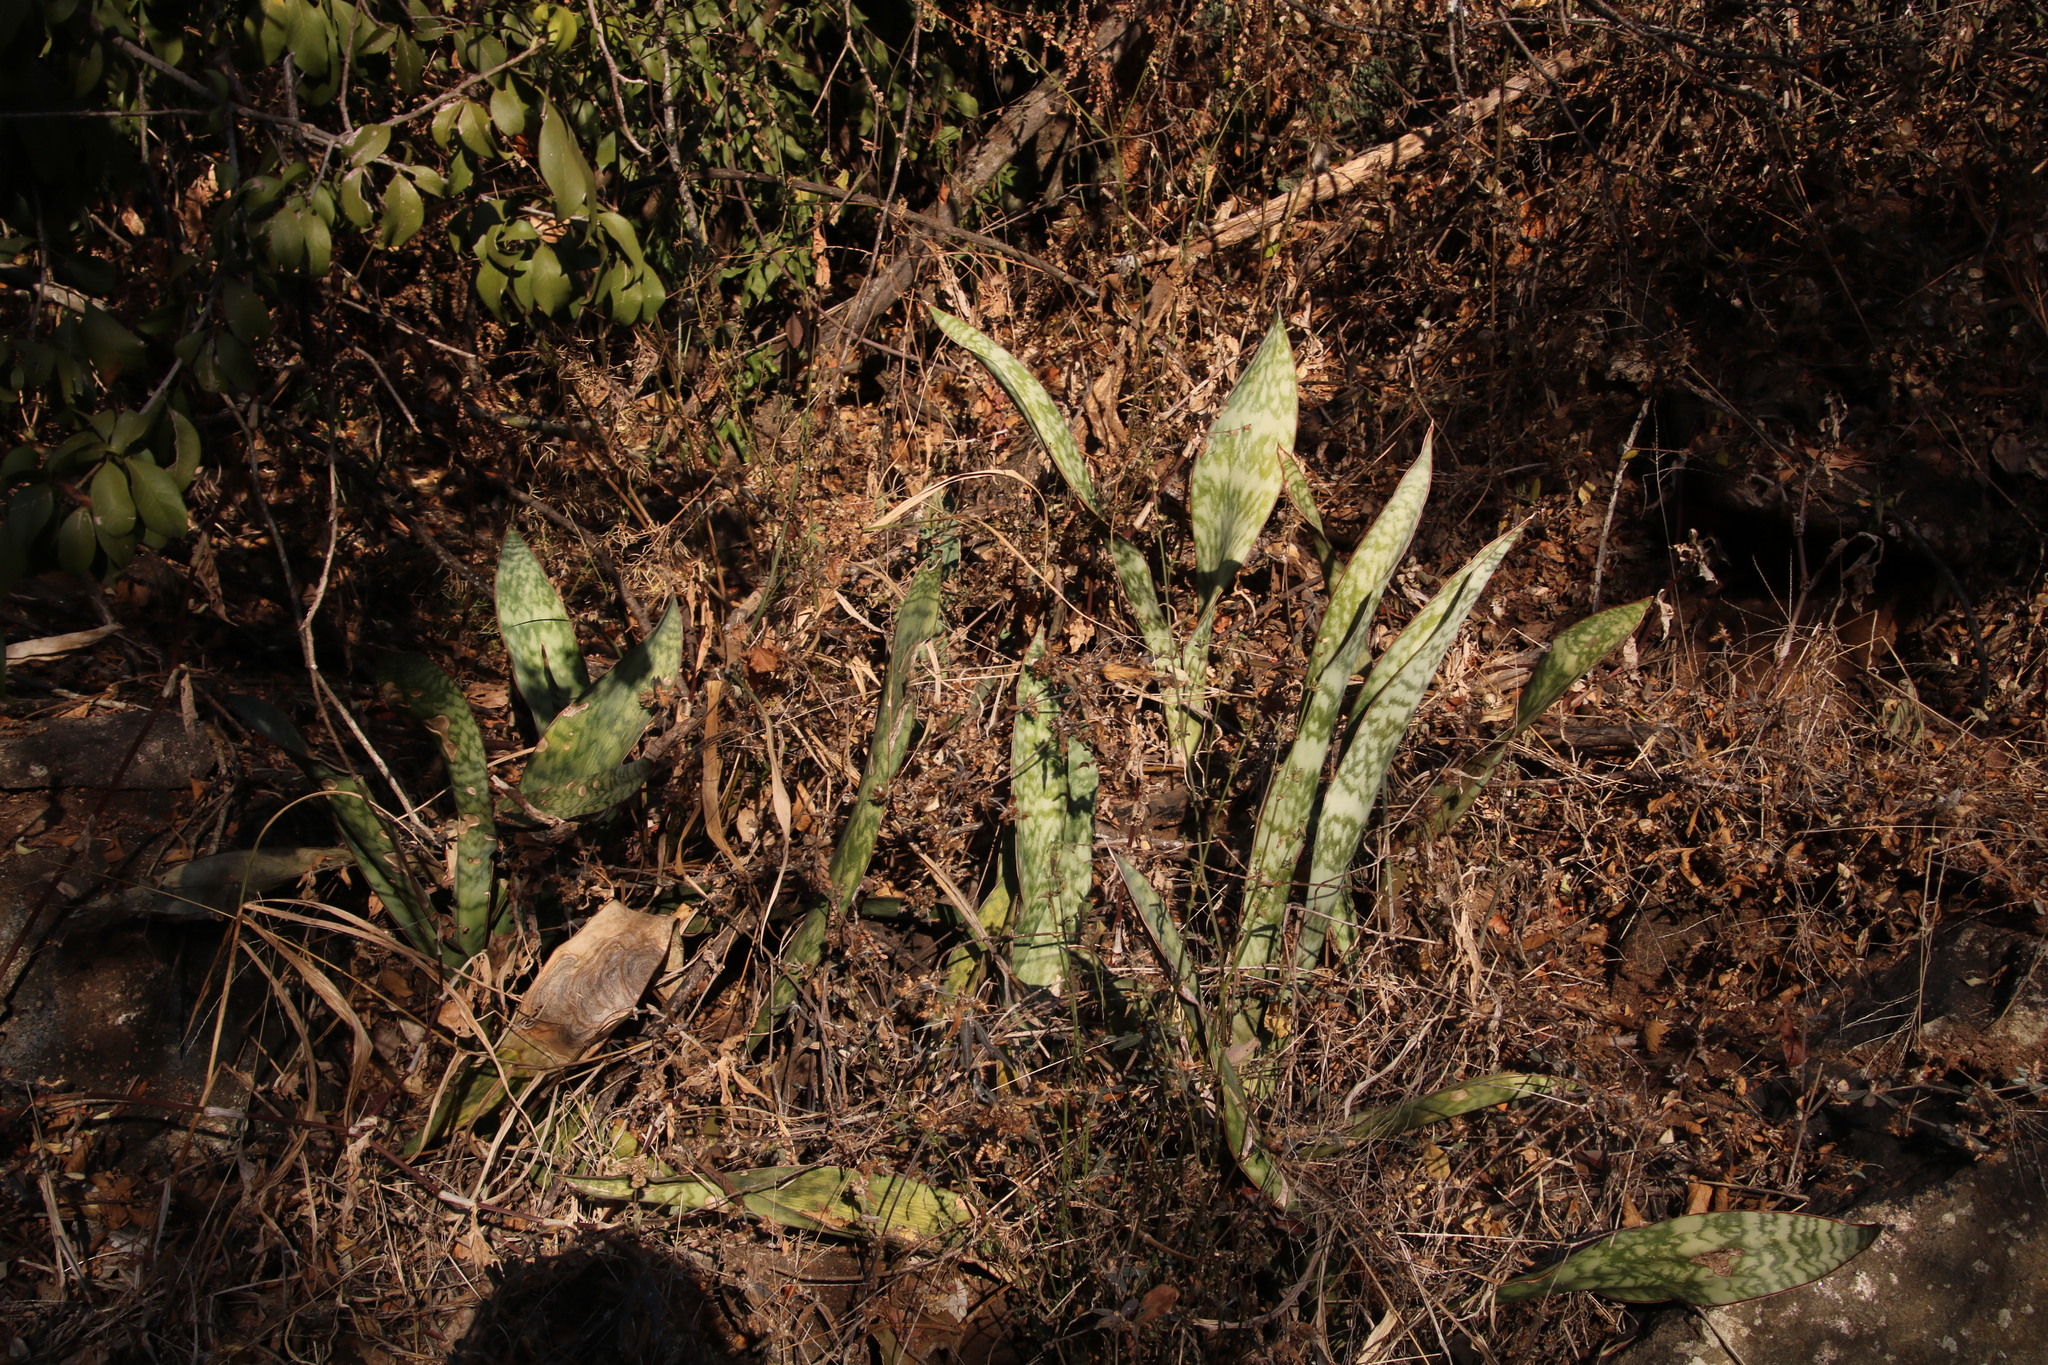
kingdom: Plantae
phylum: Tracheophyta
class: Liliopsida
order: Asparagales
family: Asparagaceae
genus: Dracaena
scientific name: Dracaena hyacinthoides
